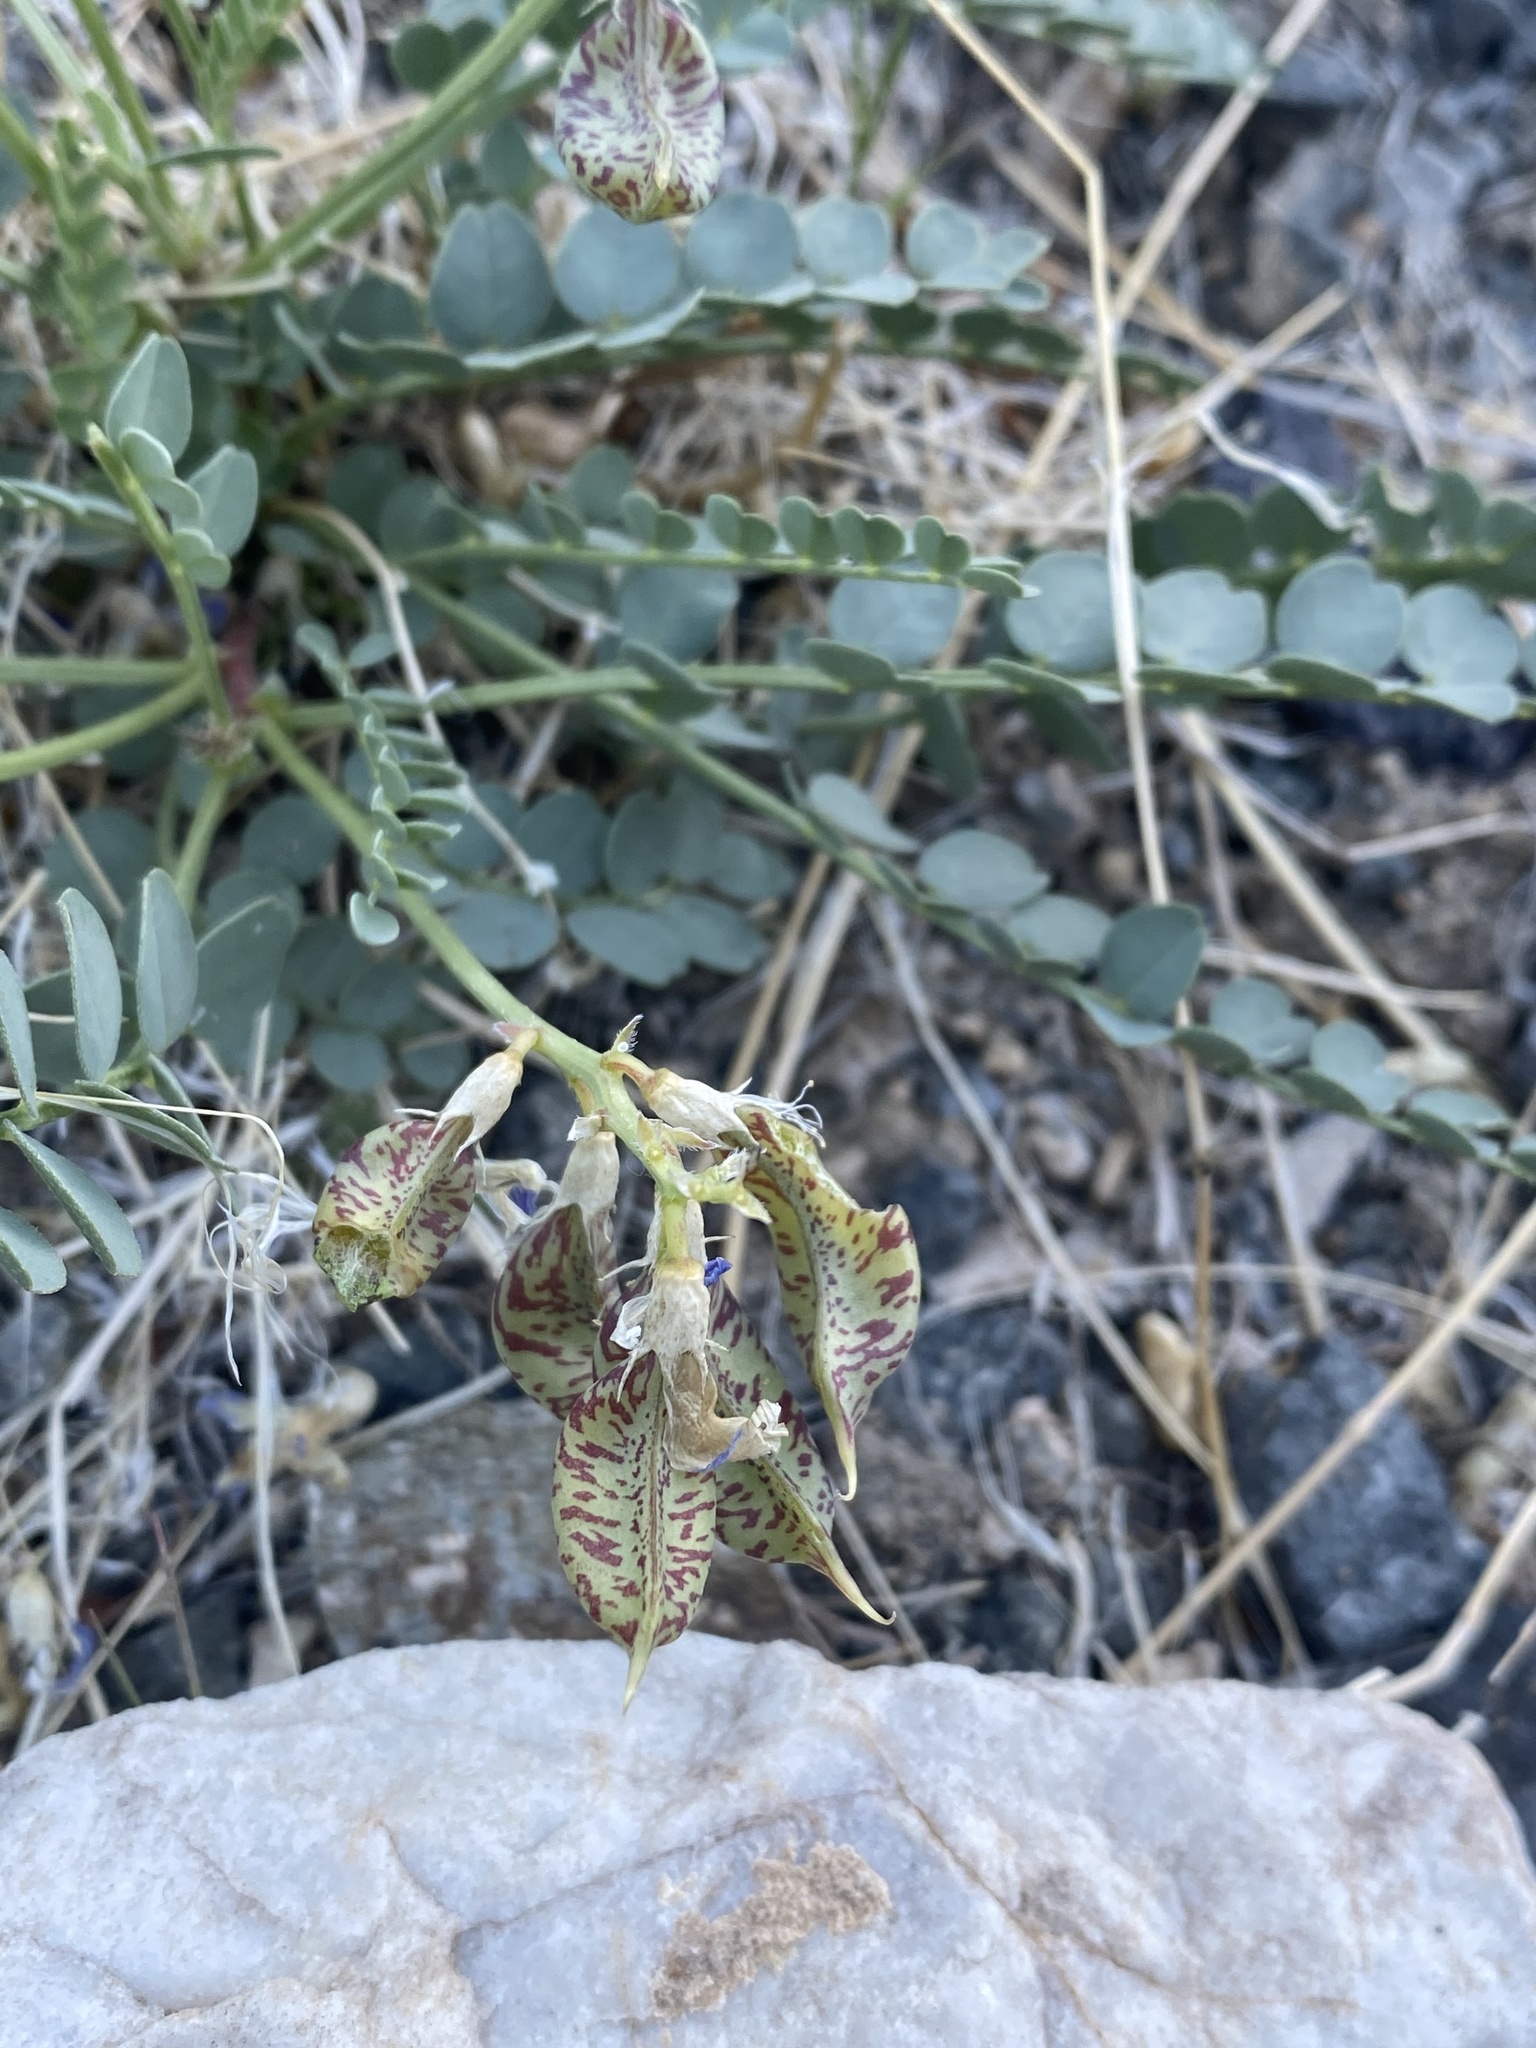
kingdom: Plantae
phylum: Tracheophyta
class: Magnoliopsida
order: Fabales
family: Fabaceae
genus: Astragalus
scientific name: Astragalus beckwithii
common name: Beckwith's milk-vetch
